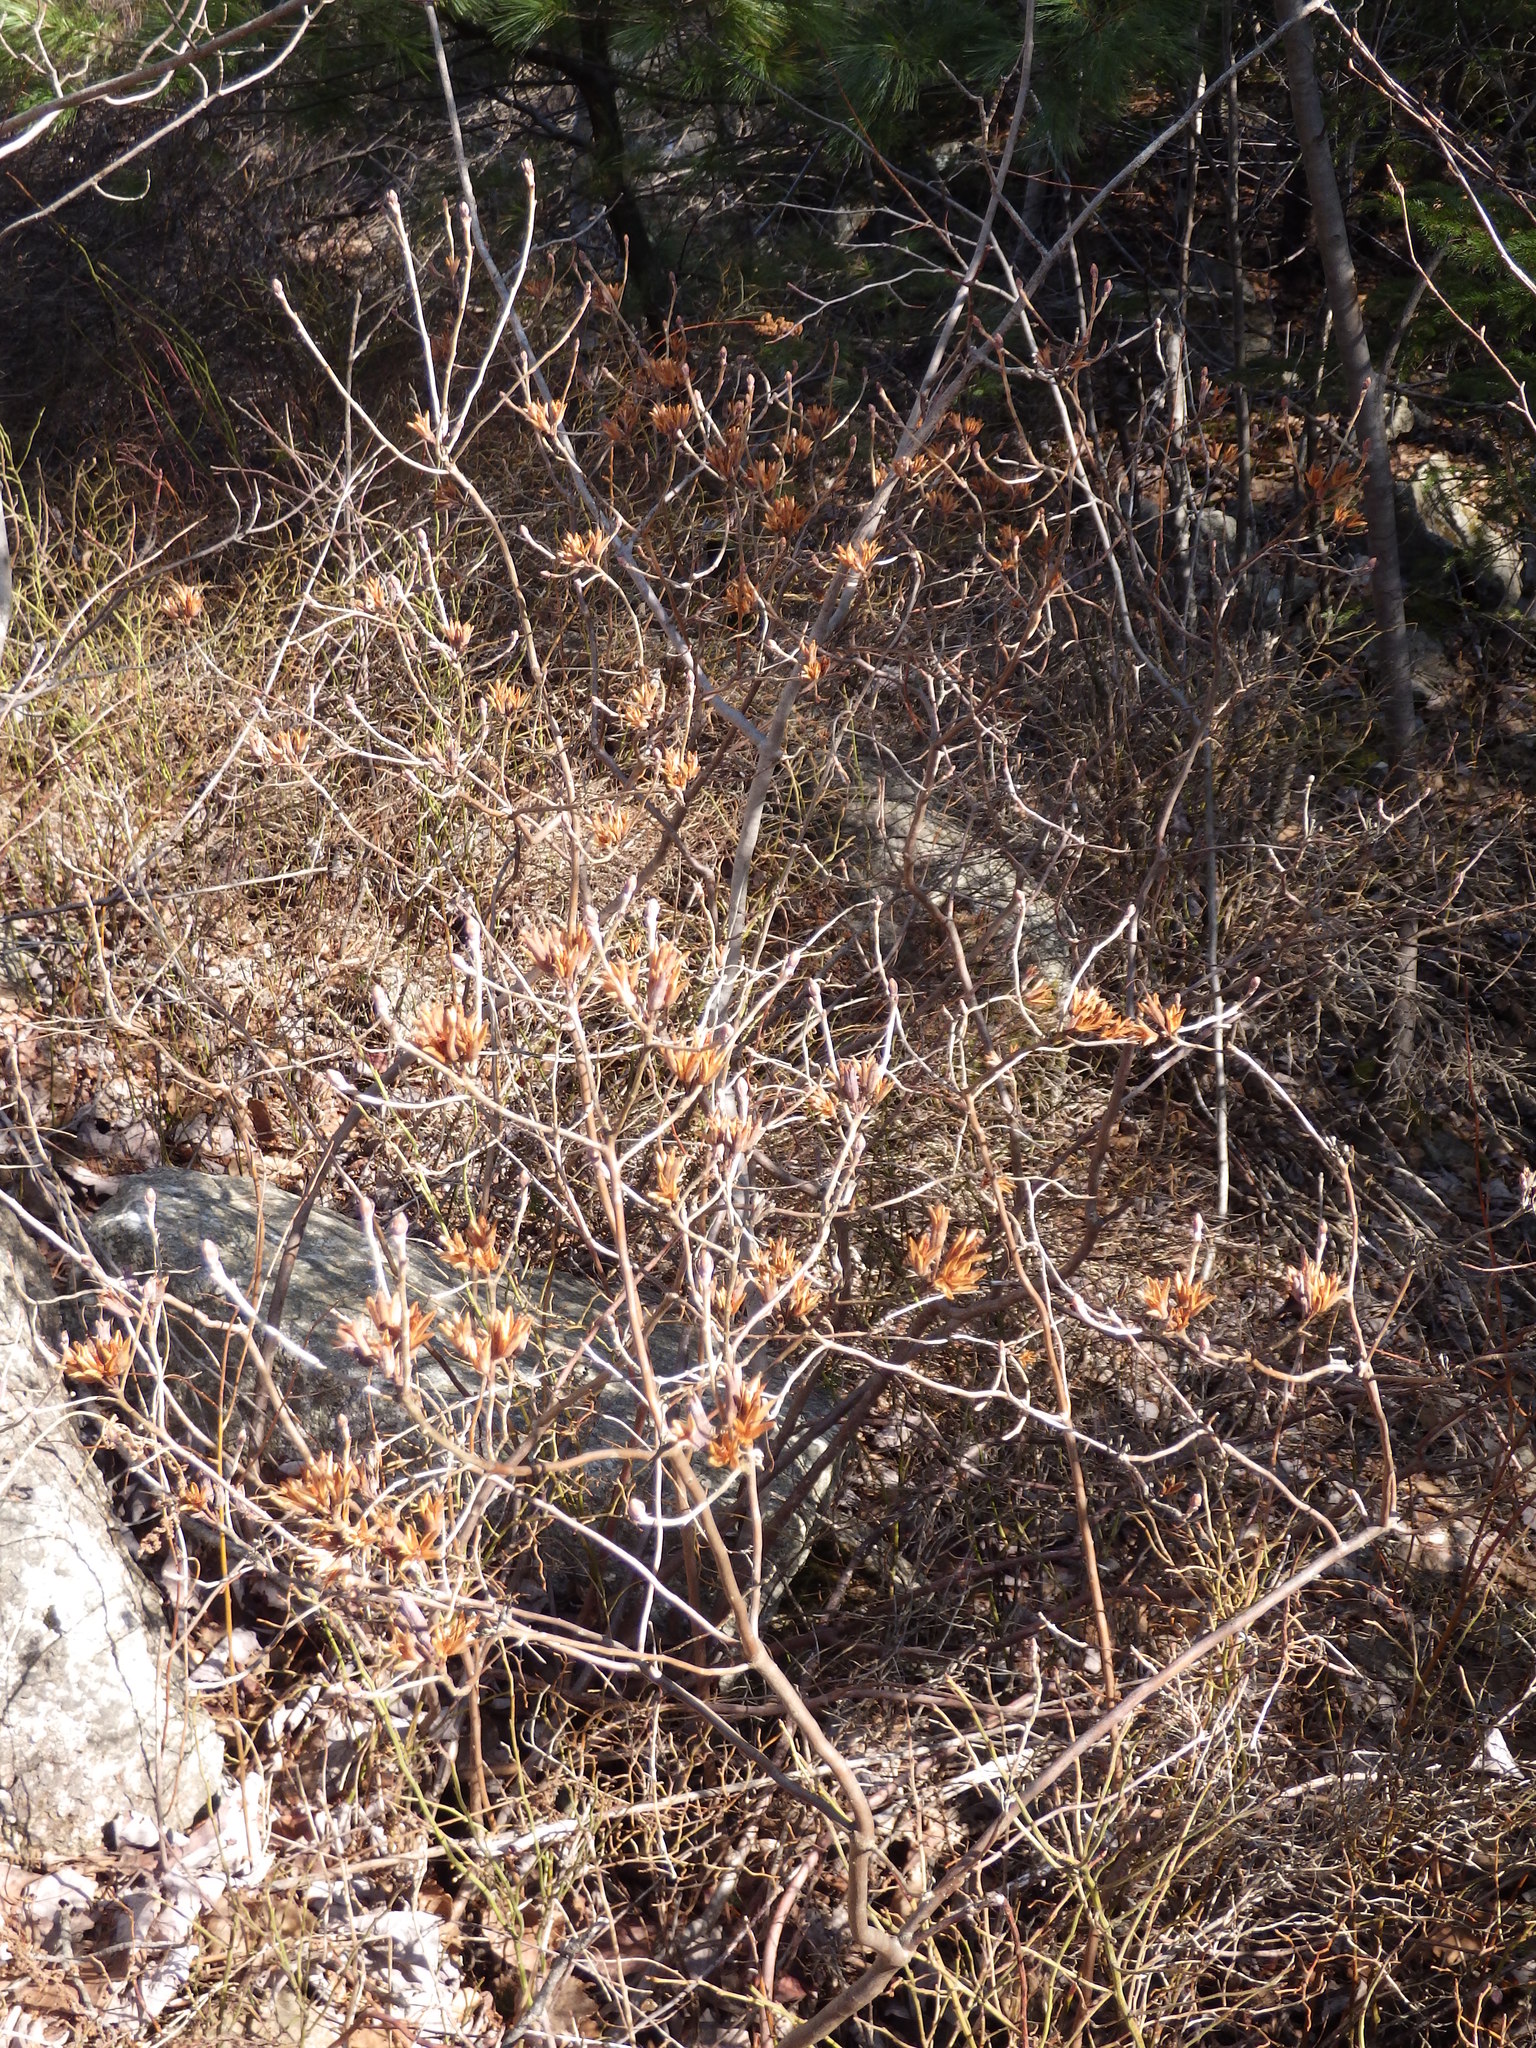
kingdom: Plantae
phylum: Tracheophyta
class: Magnoliopsida
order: Ericales
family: Ericaceae
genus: Rhododendron
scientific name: Rhododendron canadense
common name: Rhodora
